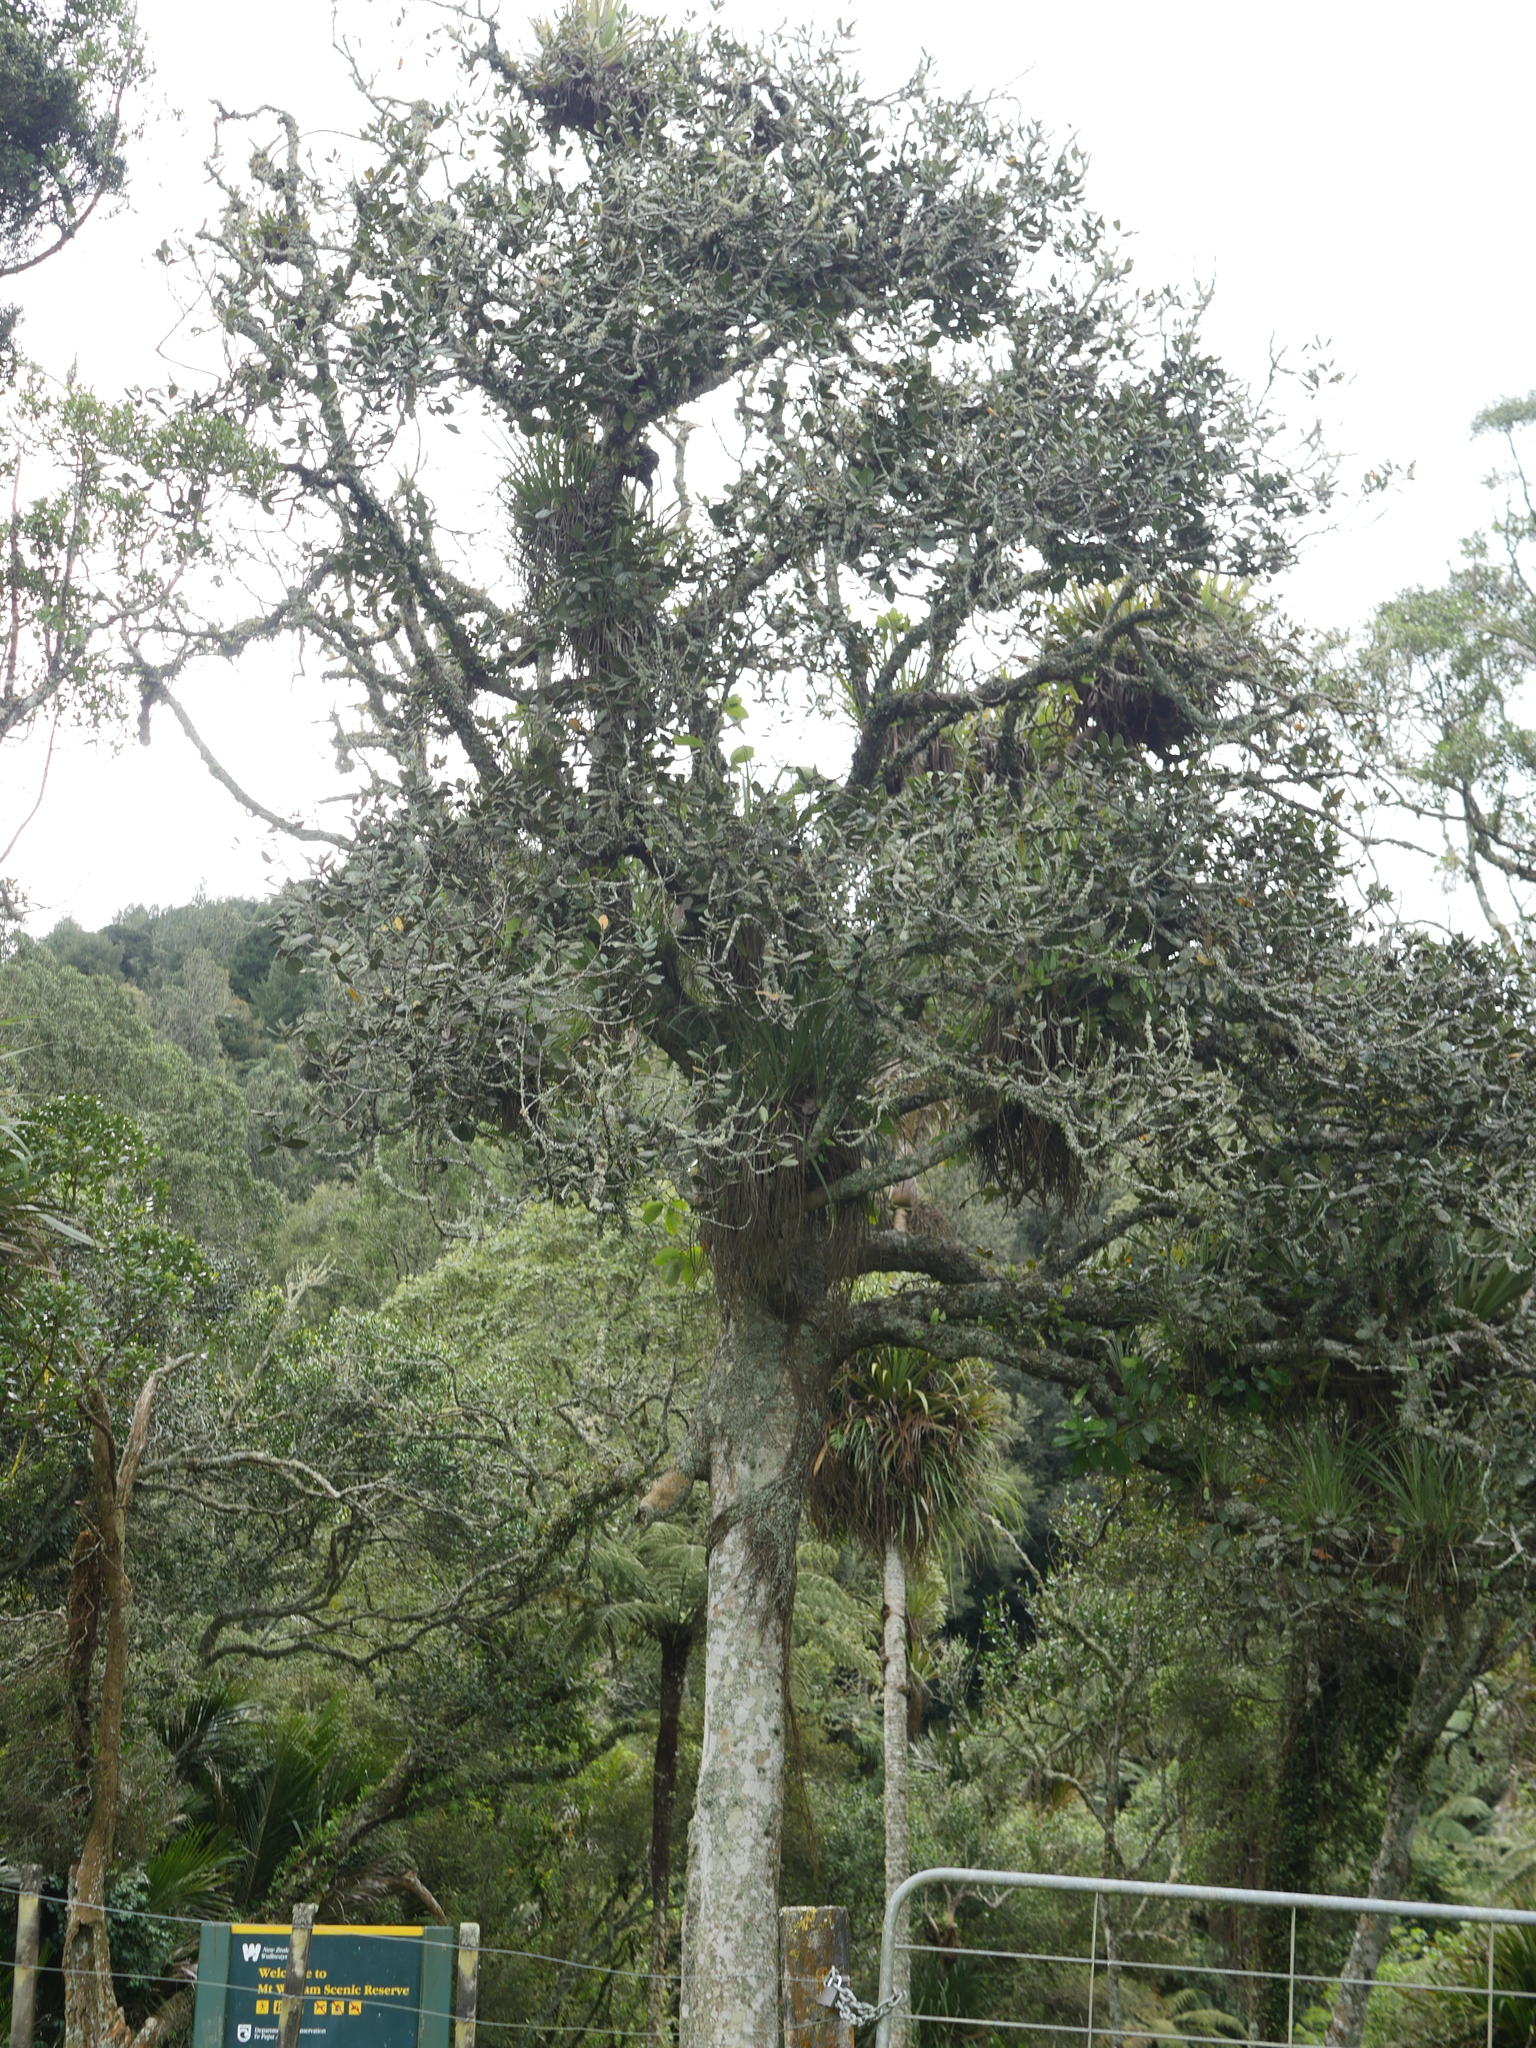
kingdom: Plantae
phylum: Tracheophyta
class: Magnoliopsida
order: Laurales
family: Lauraceae
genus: Beilschmiedia
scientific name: Beilschmiedia tarairi
